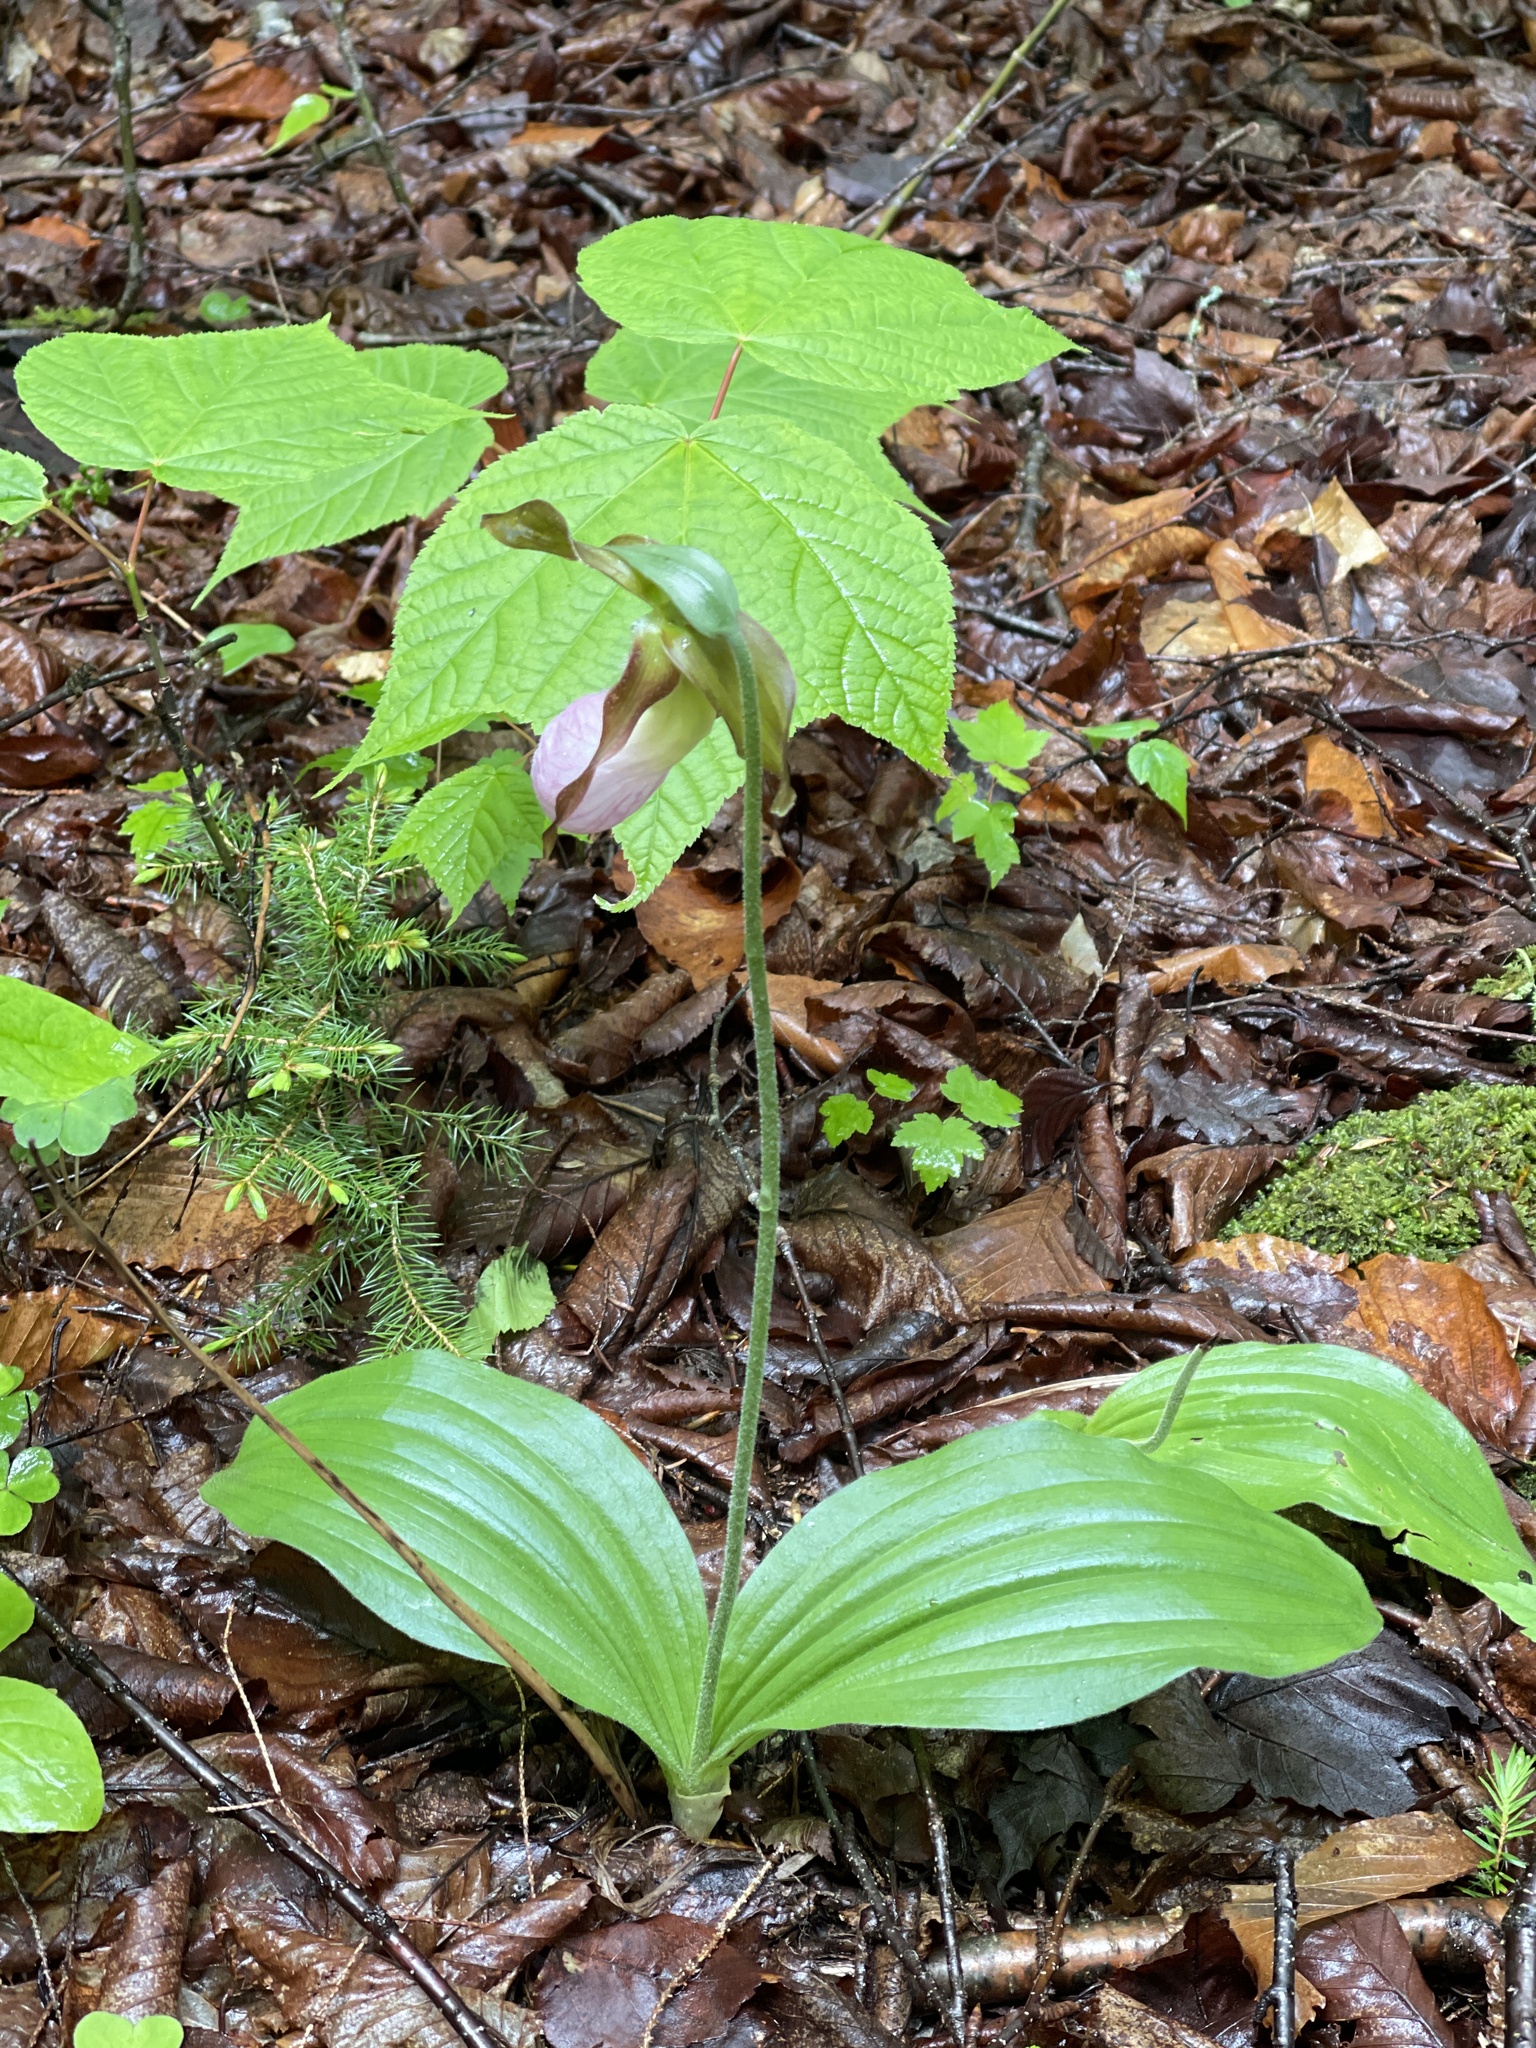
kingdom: Plantae
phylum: Tracheophyta
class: Liliopsida
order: Asparagales
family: Orchidaceae
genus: Cypripedium
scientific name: Cypripedium acaule
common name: Pink lady's-slipper
